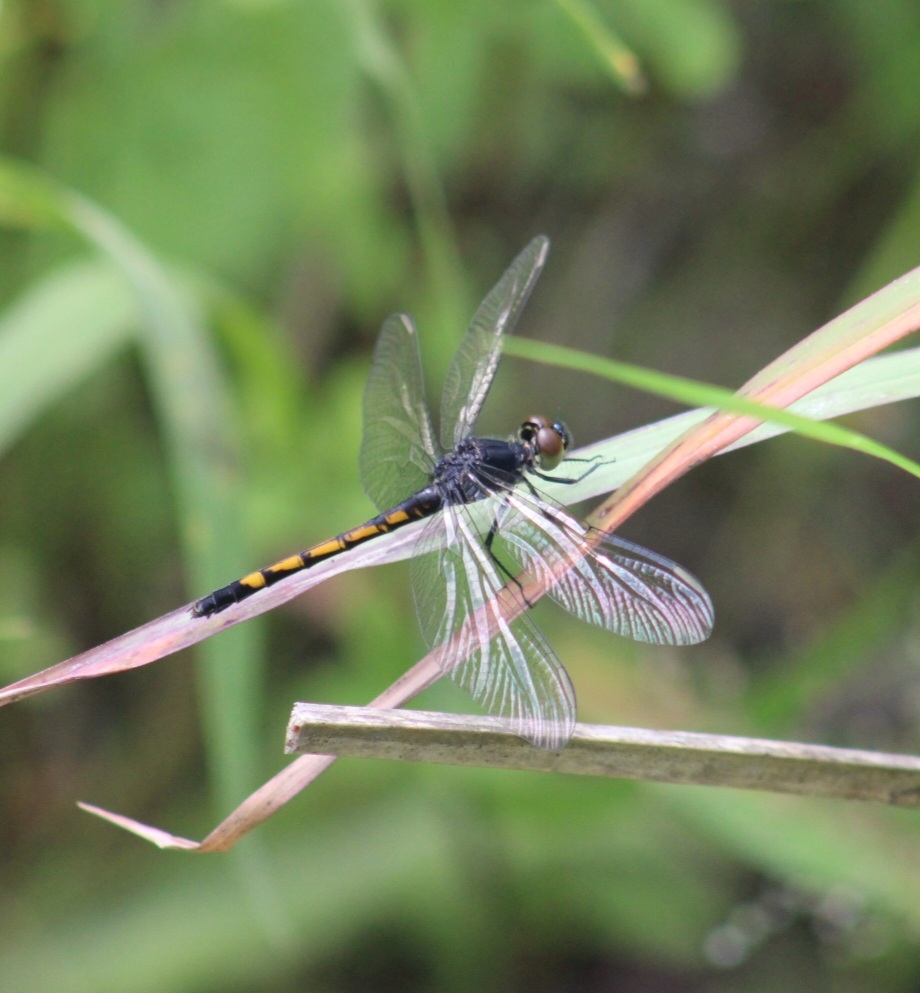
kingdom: Animalia
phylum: Arthropoda
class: Insecta
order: Odonata
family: Libellulidae
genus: Erythrodiplax
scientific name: Erythrodiplax berenice
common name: Seaside dragonlet
